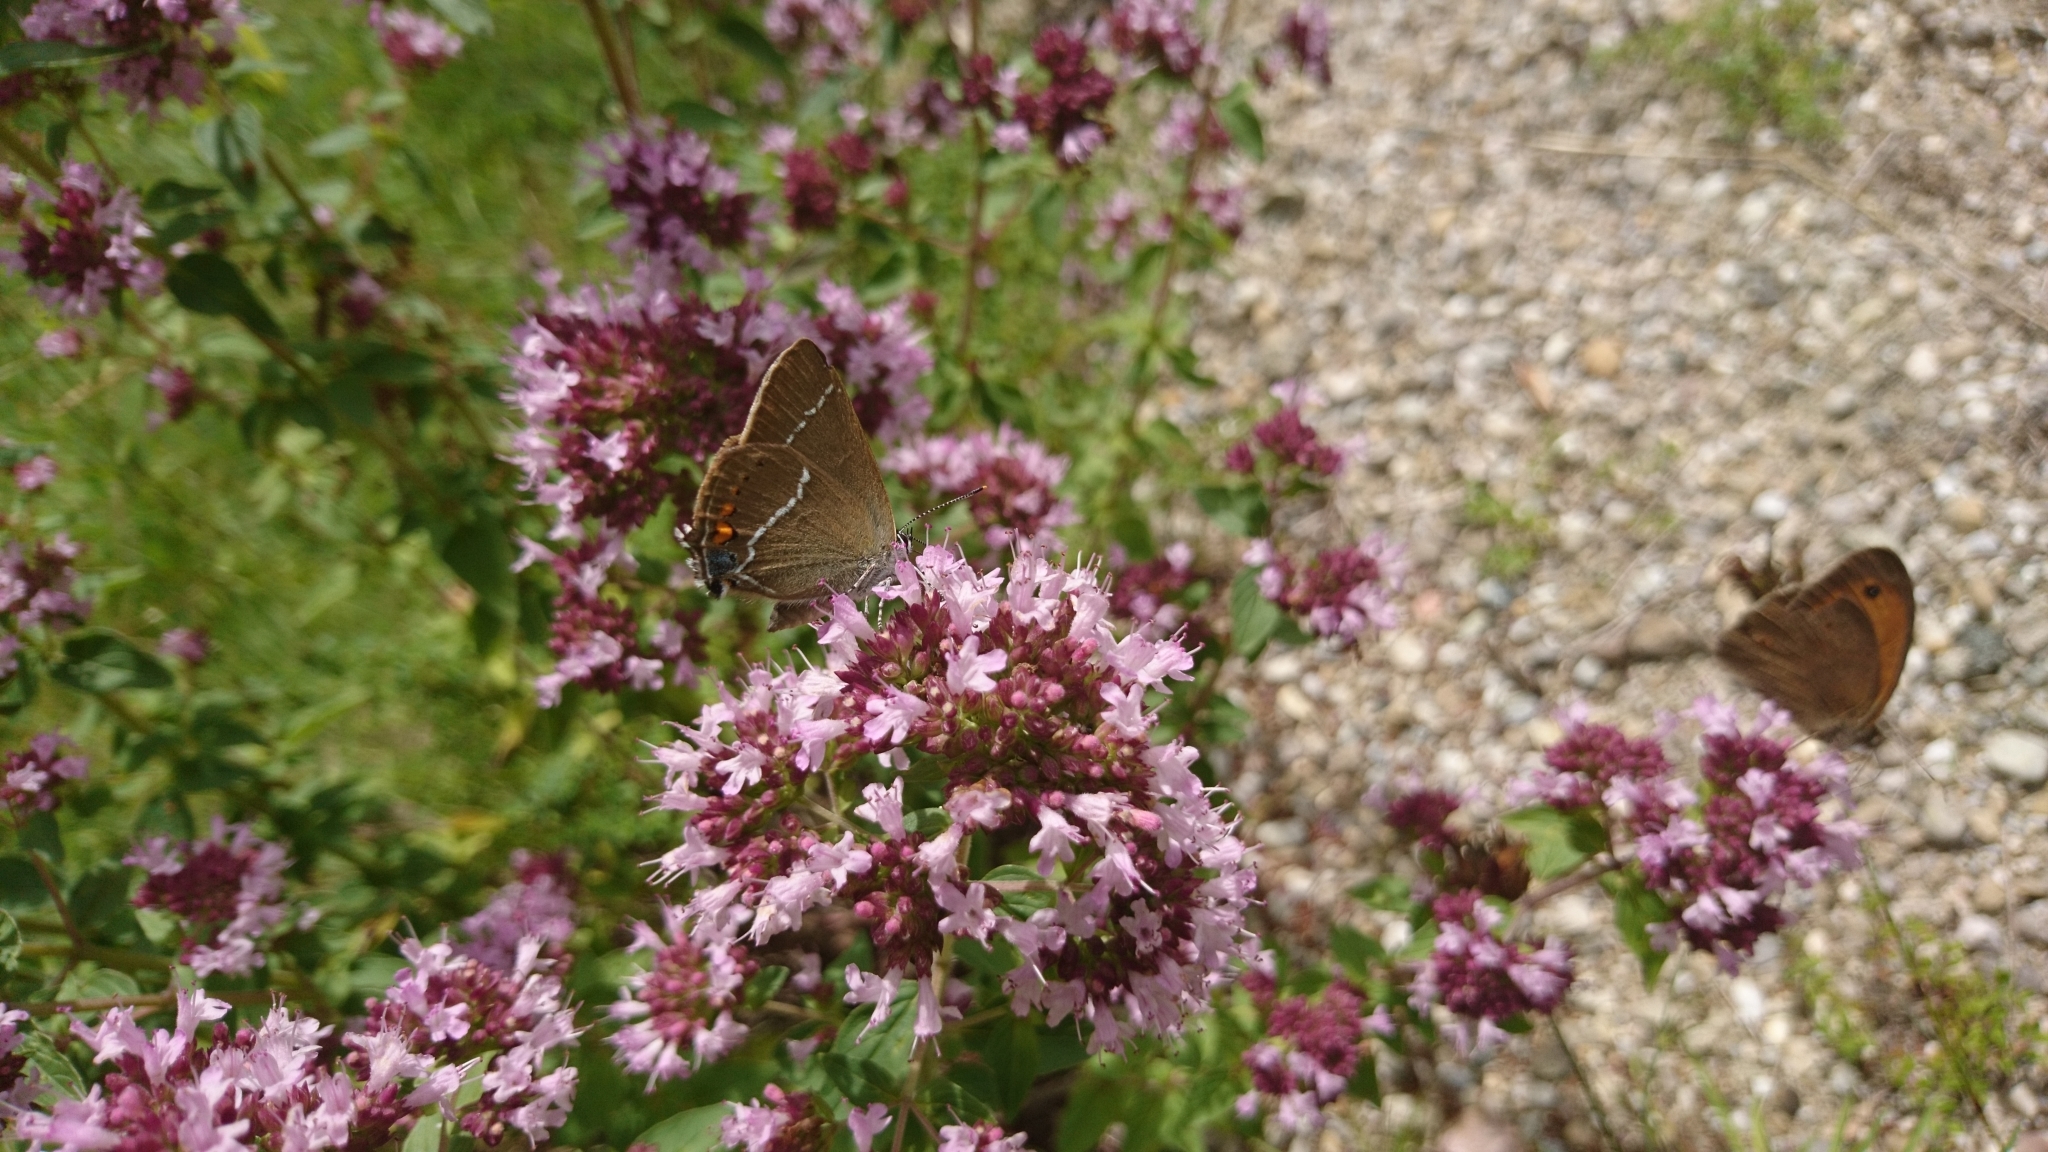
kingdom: Animalia
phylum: Arthropoda
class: Insecta
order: Lepidoptera
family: Lycaenidae
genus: Tuttiola
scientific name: Tuttiola spini
